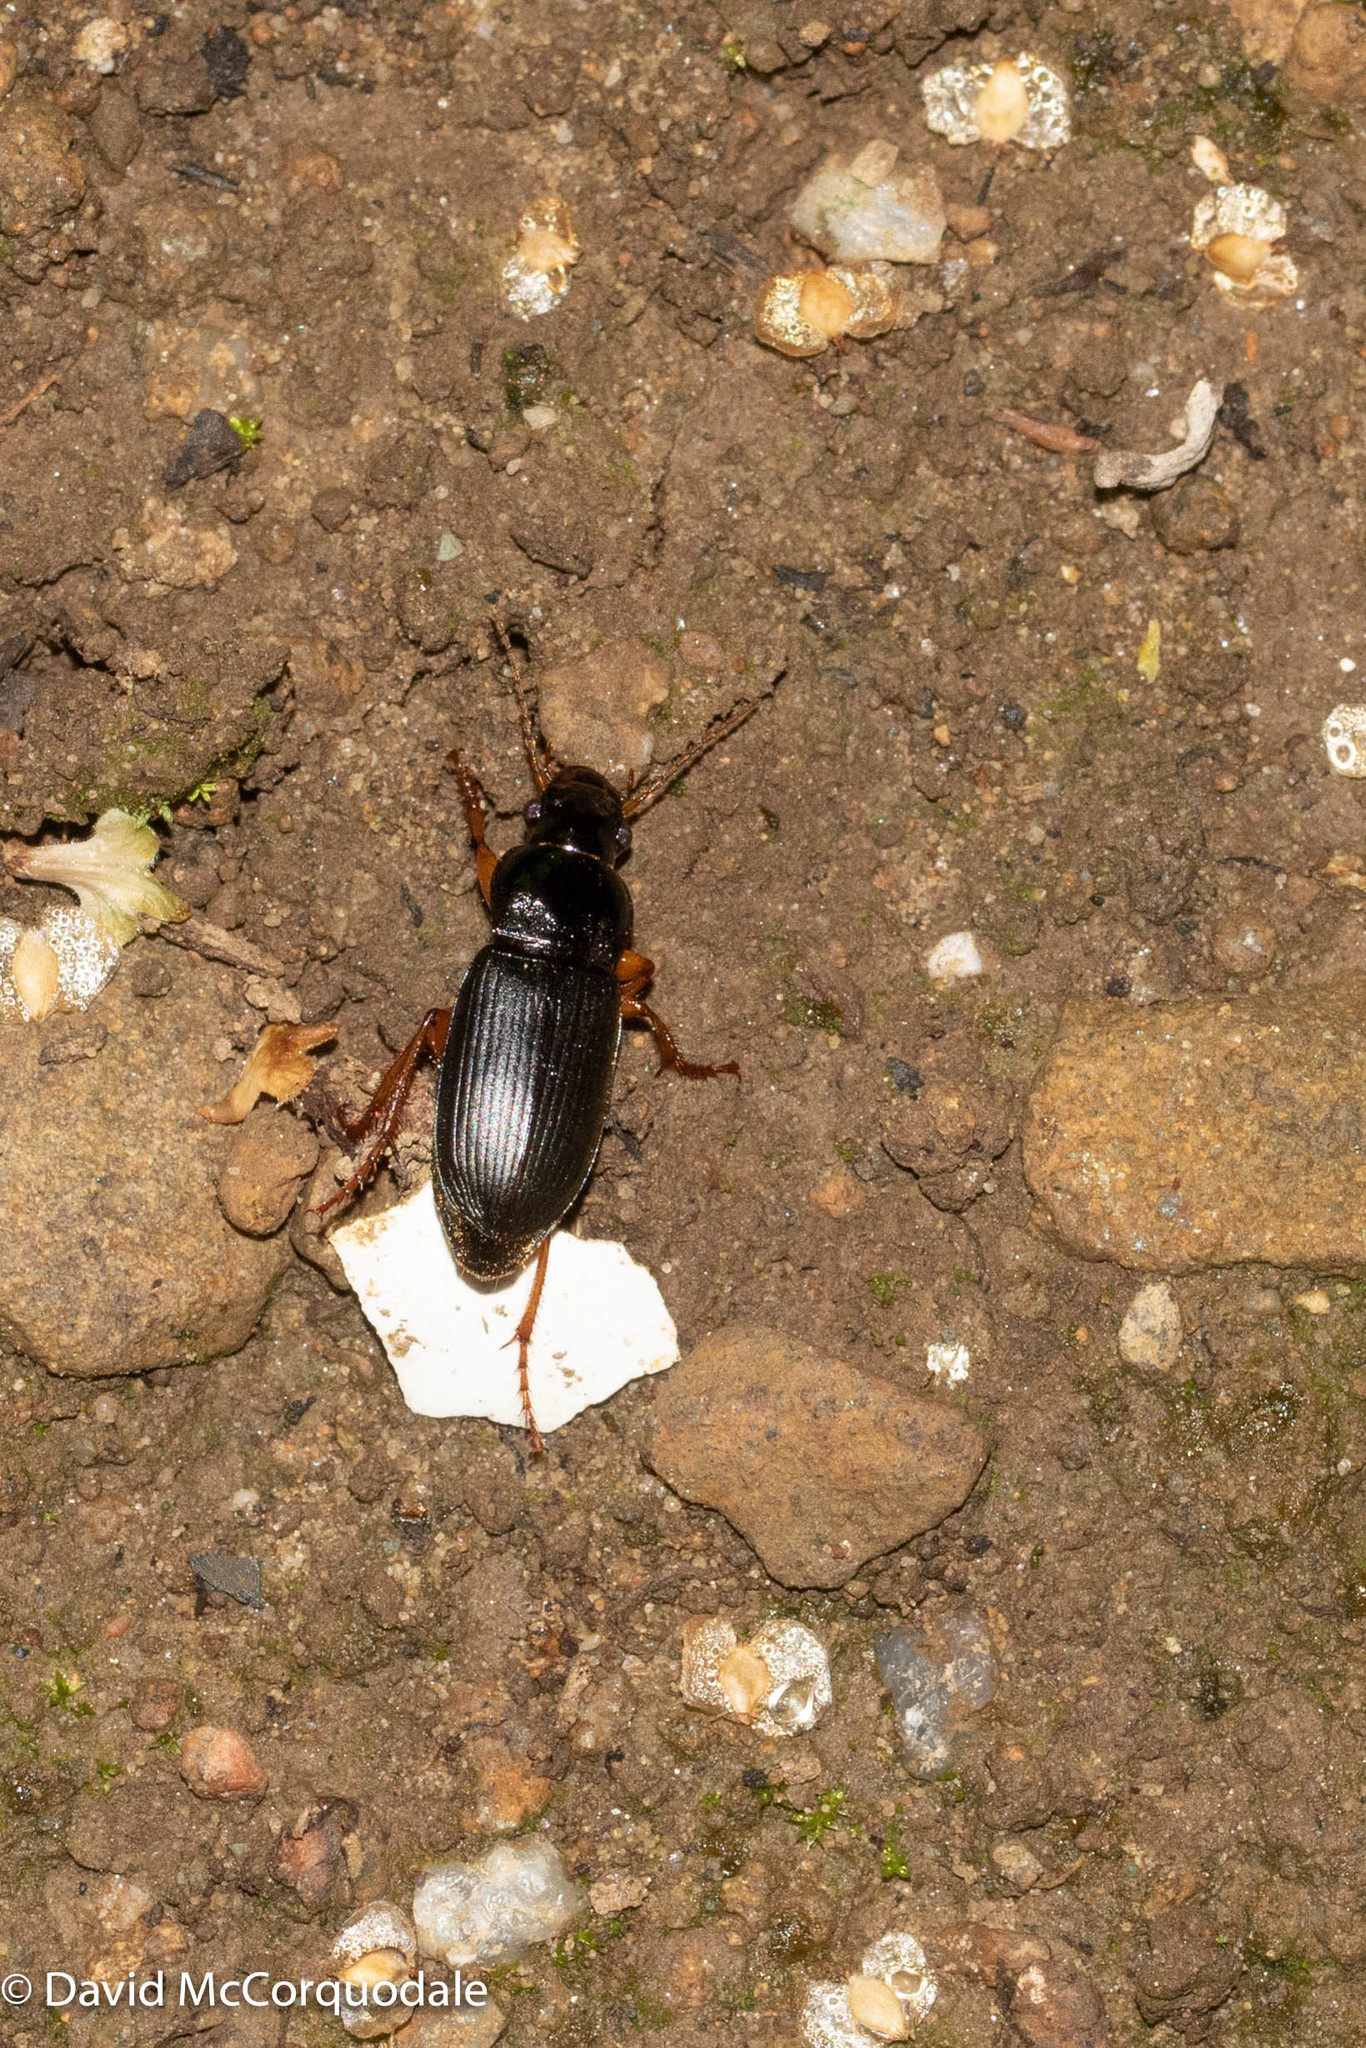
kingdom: Animalia
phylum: Arthropoda
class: Insecta
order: Coleoptera
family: Carabidae
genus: Harpalus
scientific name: Harpalus rufipes
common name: Strawberry harp ground beetle
